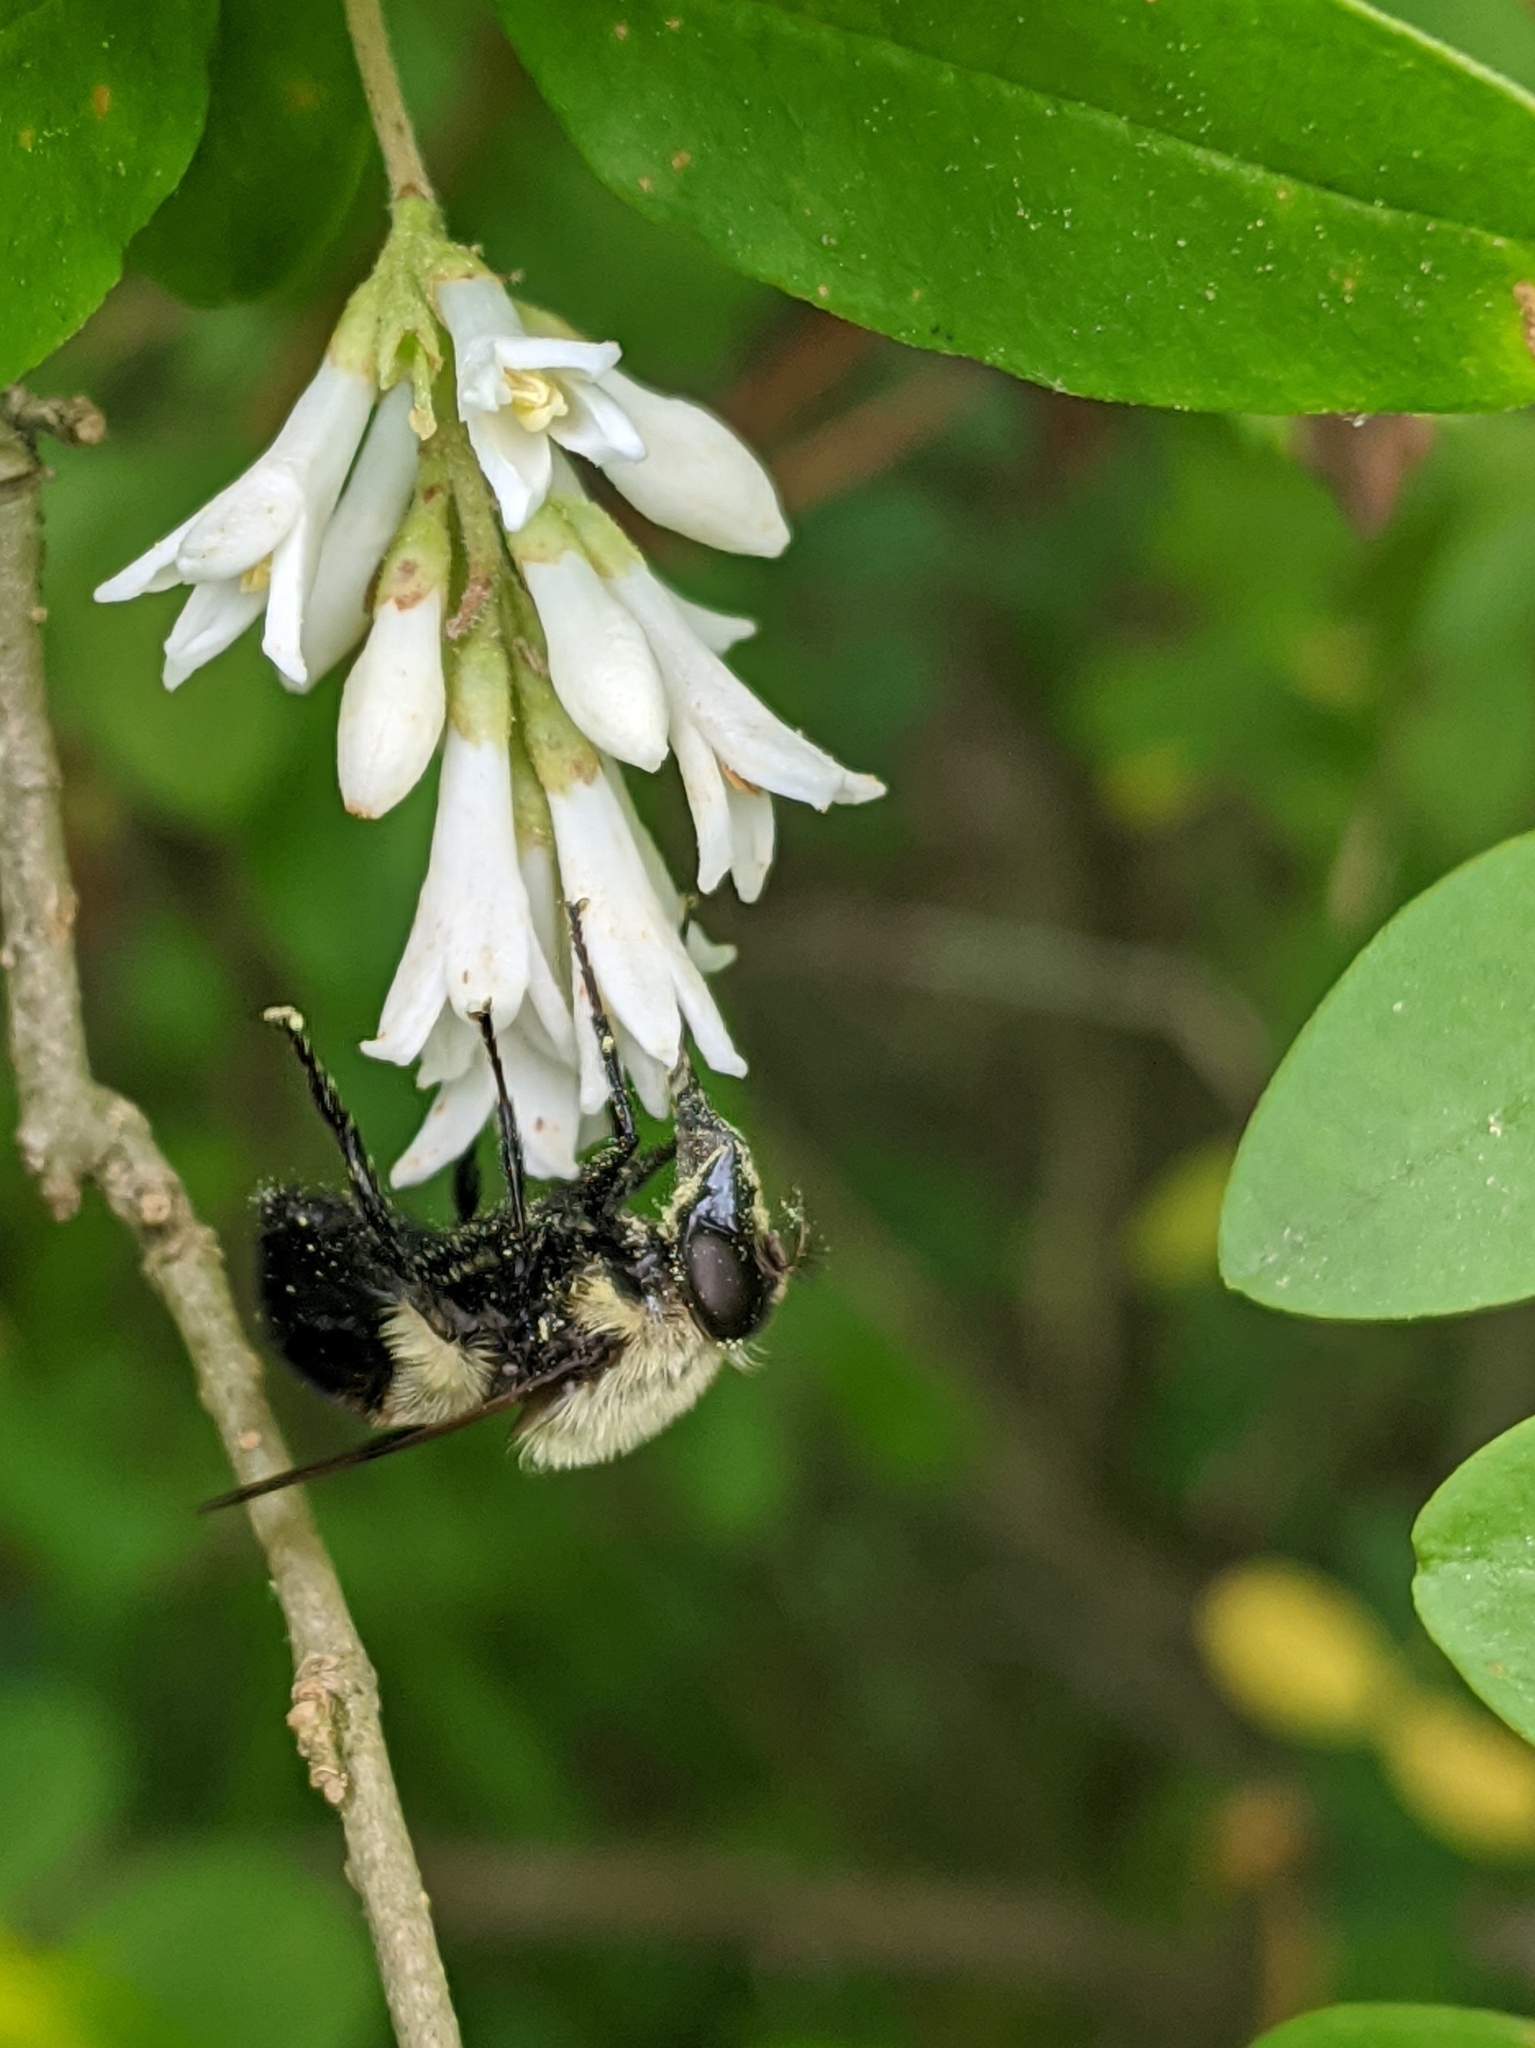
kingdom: Animalia
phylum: Arthropoda
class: Insecta
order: Diptera
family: Syrphidae
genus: Volucella
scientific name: Volucella evecta
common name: Eastern swiftwing
